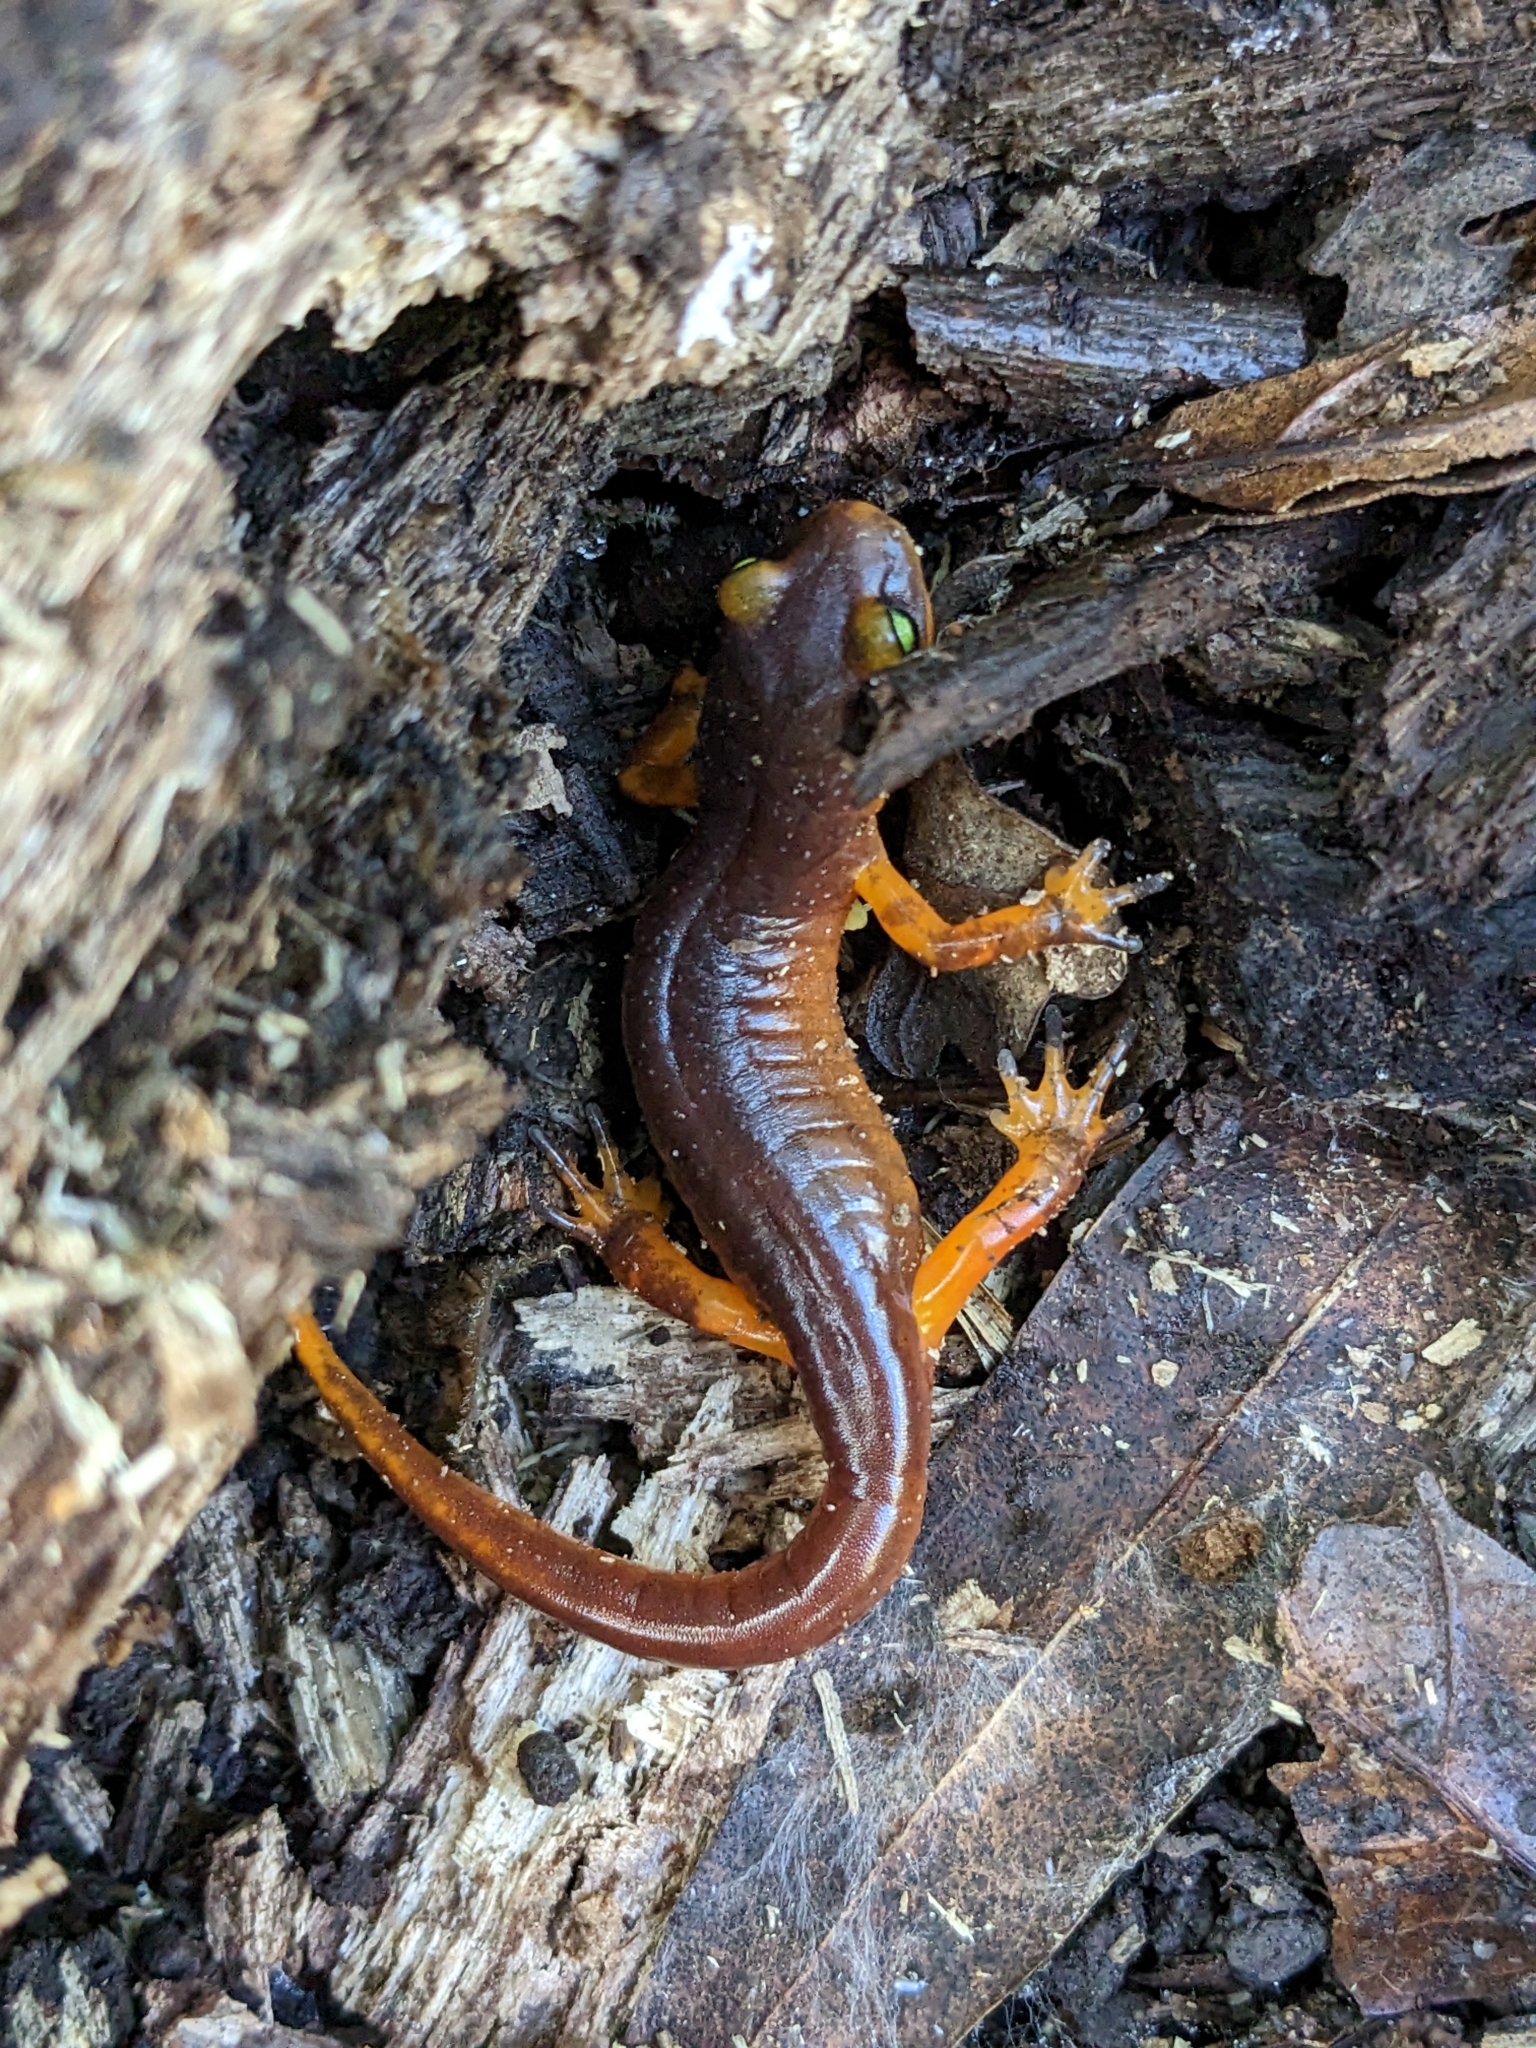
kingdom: Animalia
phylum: Chordata
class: Amphibia
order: Caudata
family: Plethodontidae
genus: Ensatina
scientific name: Ensatina eschscholtzii
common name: Ensatina
